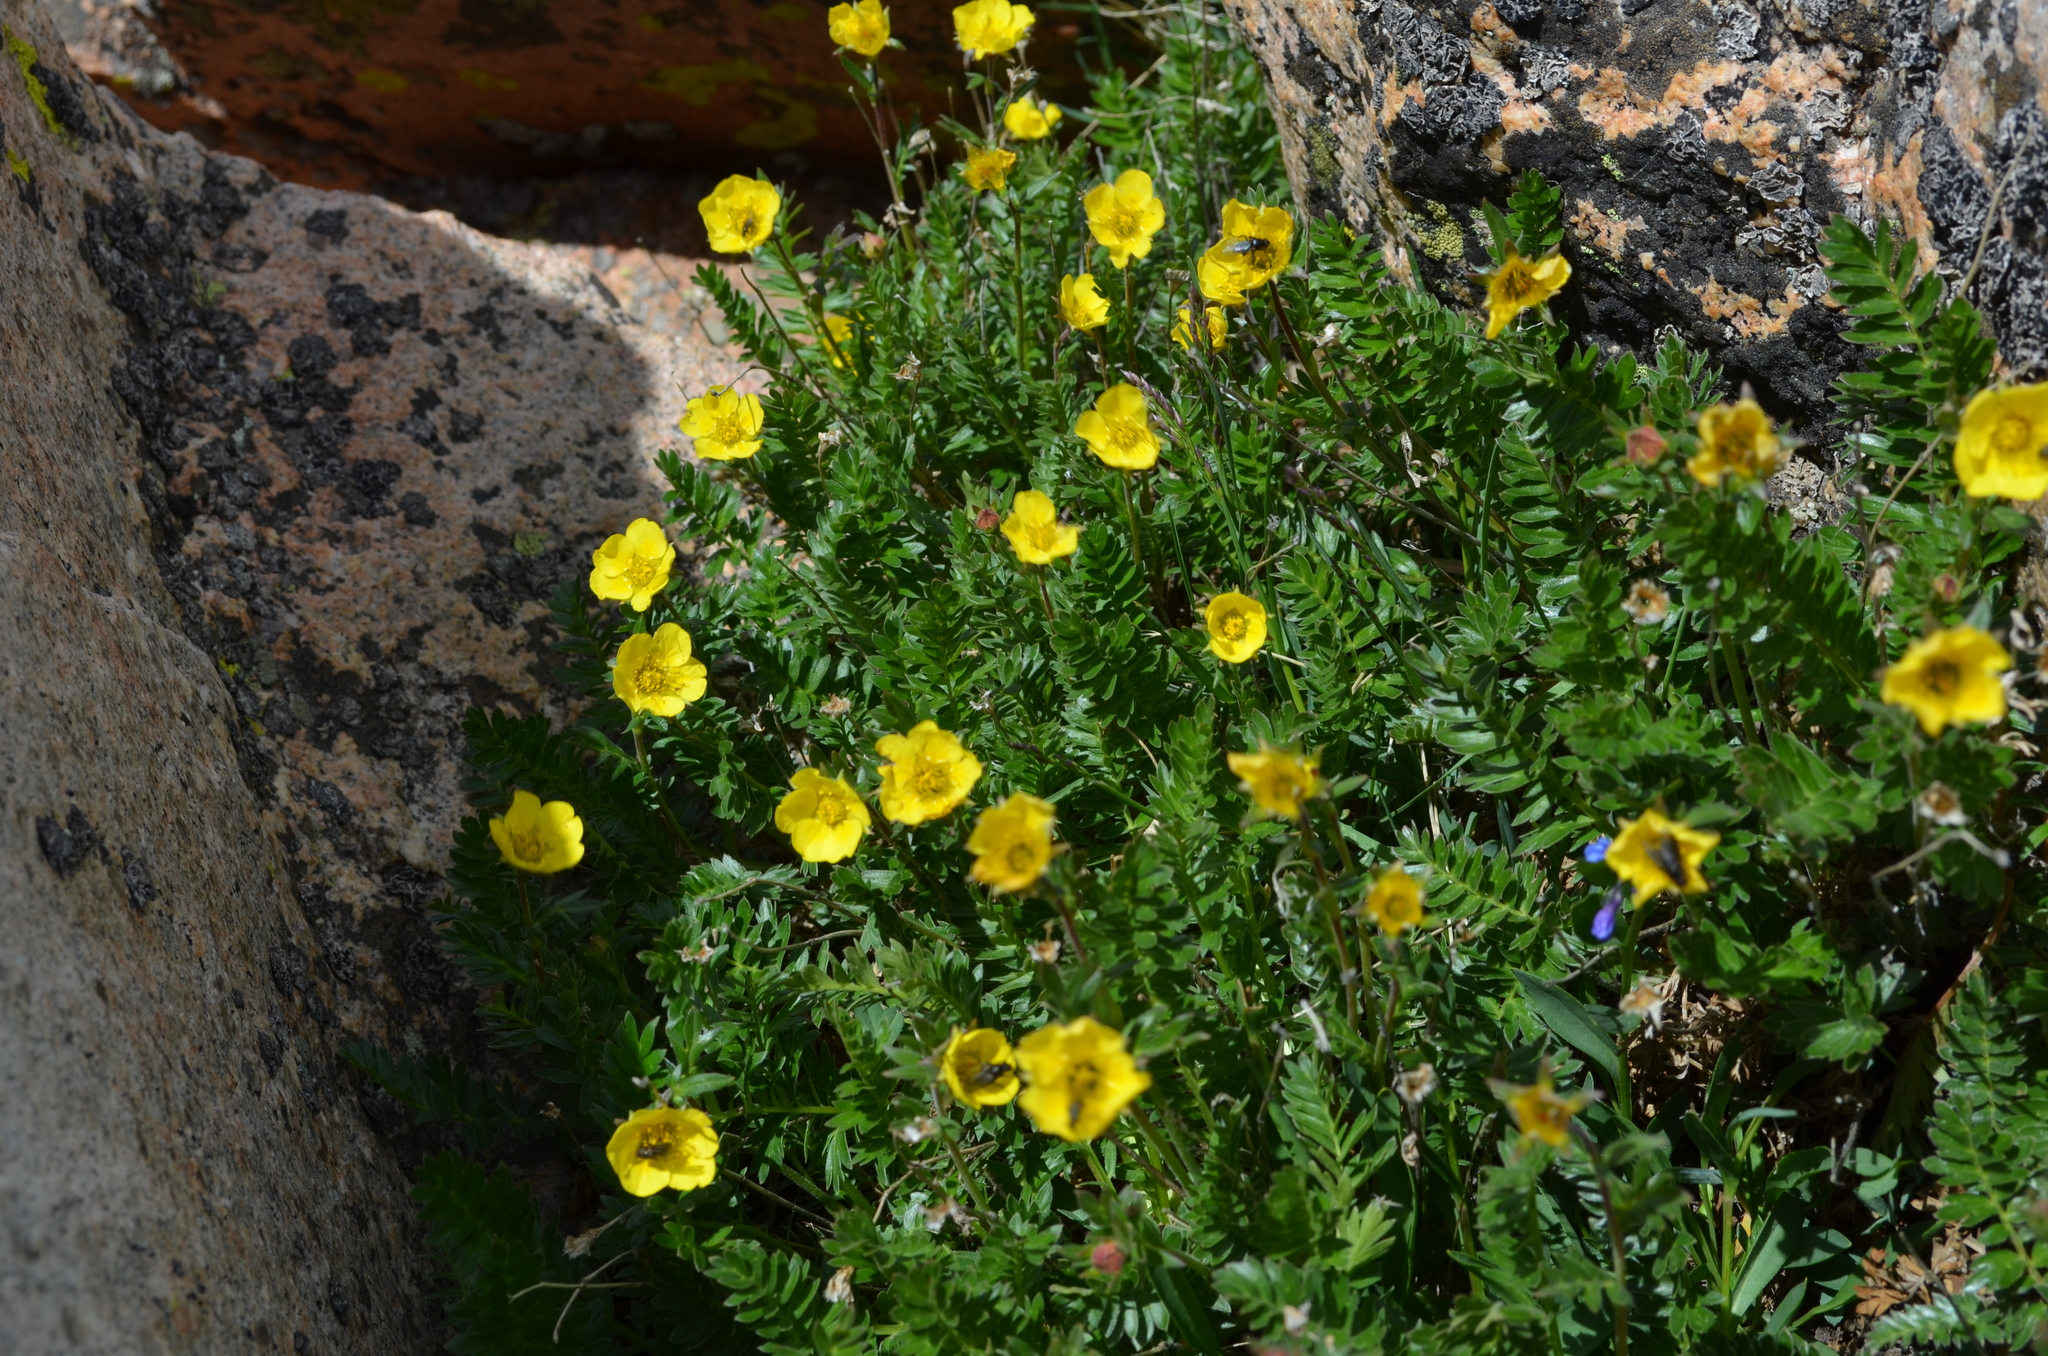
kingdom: Plantae
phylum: Tracheophyta
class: Magnoliopsida
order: Rosales
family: Rosaceae
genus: Geum
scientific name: Geum rossii
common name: Alpine avens
